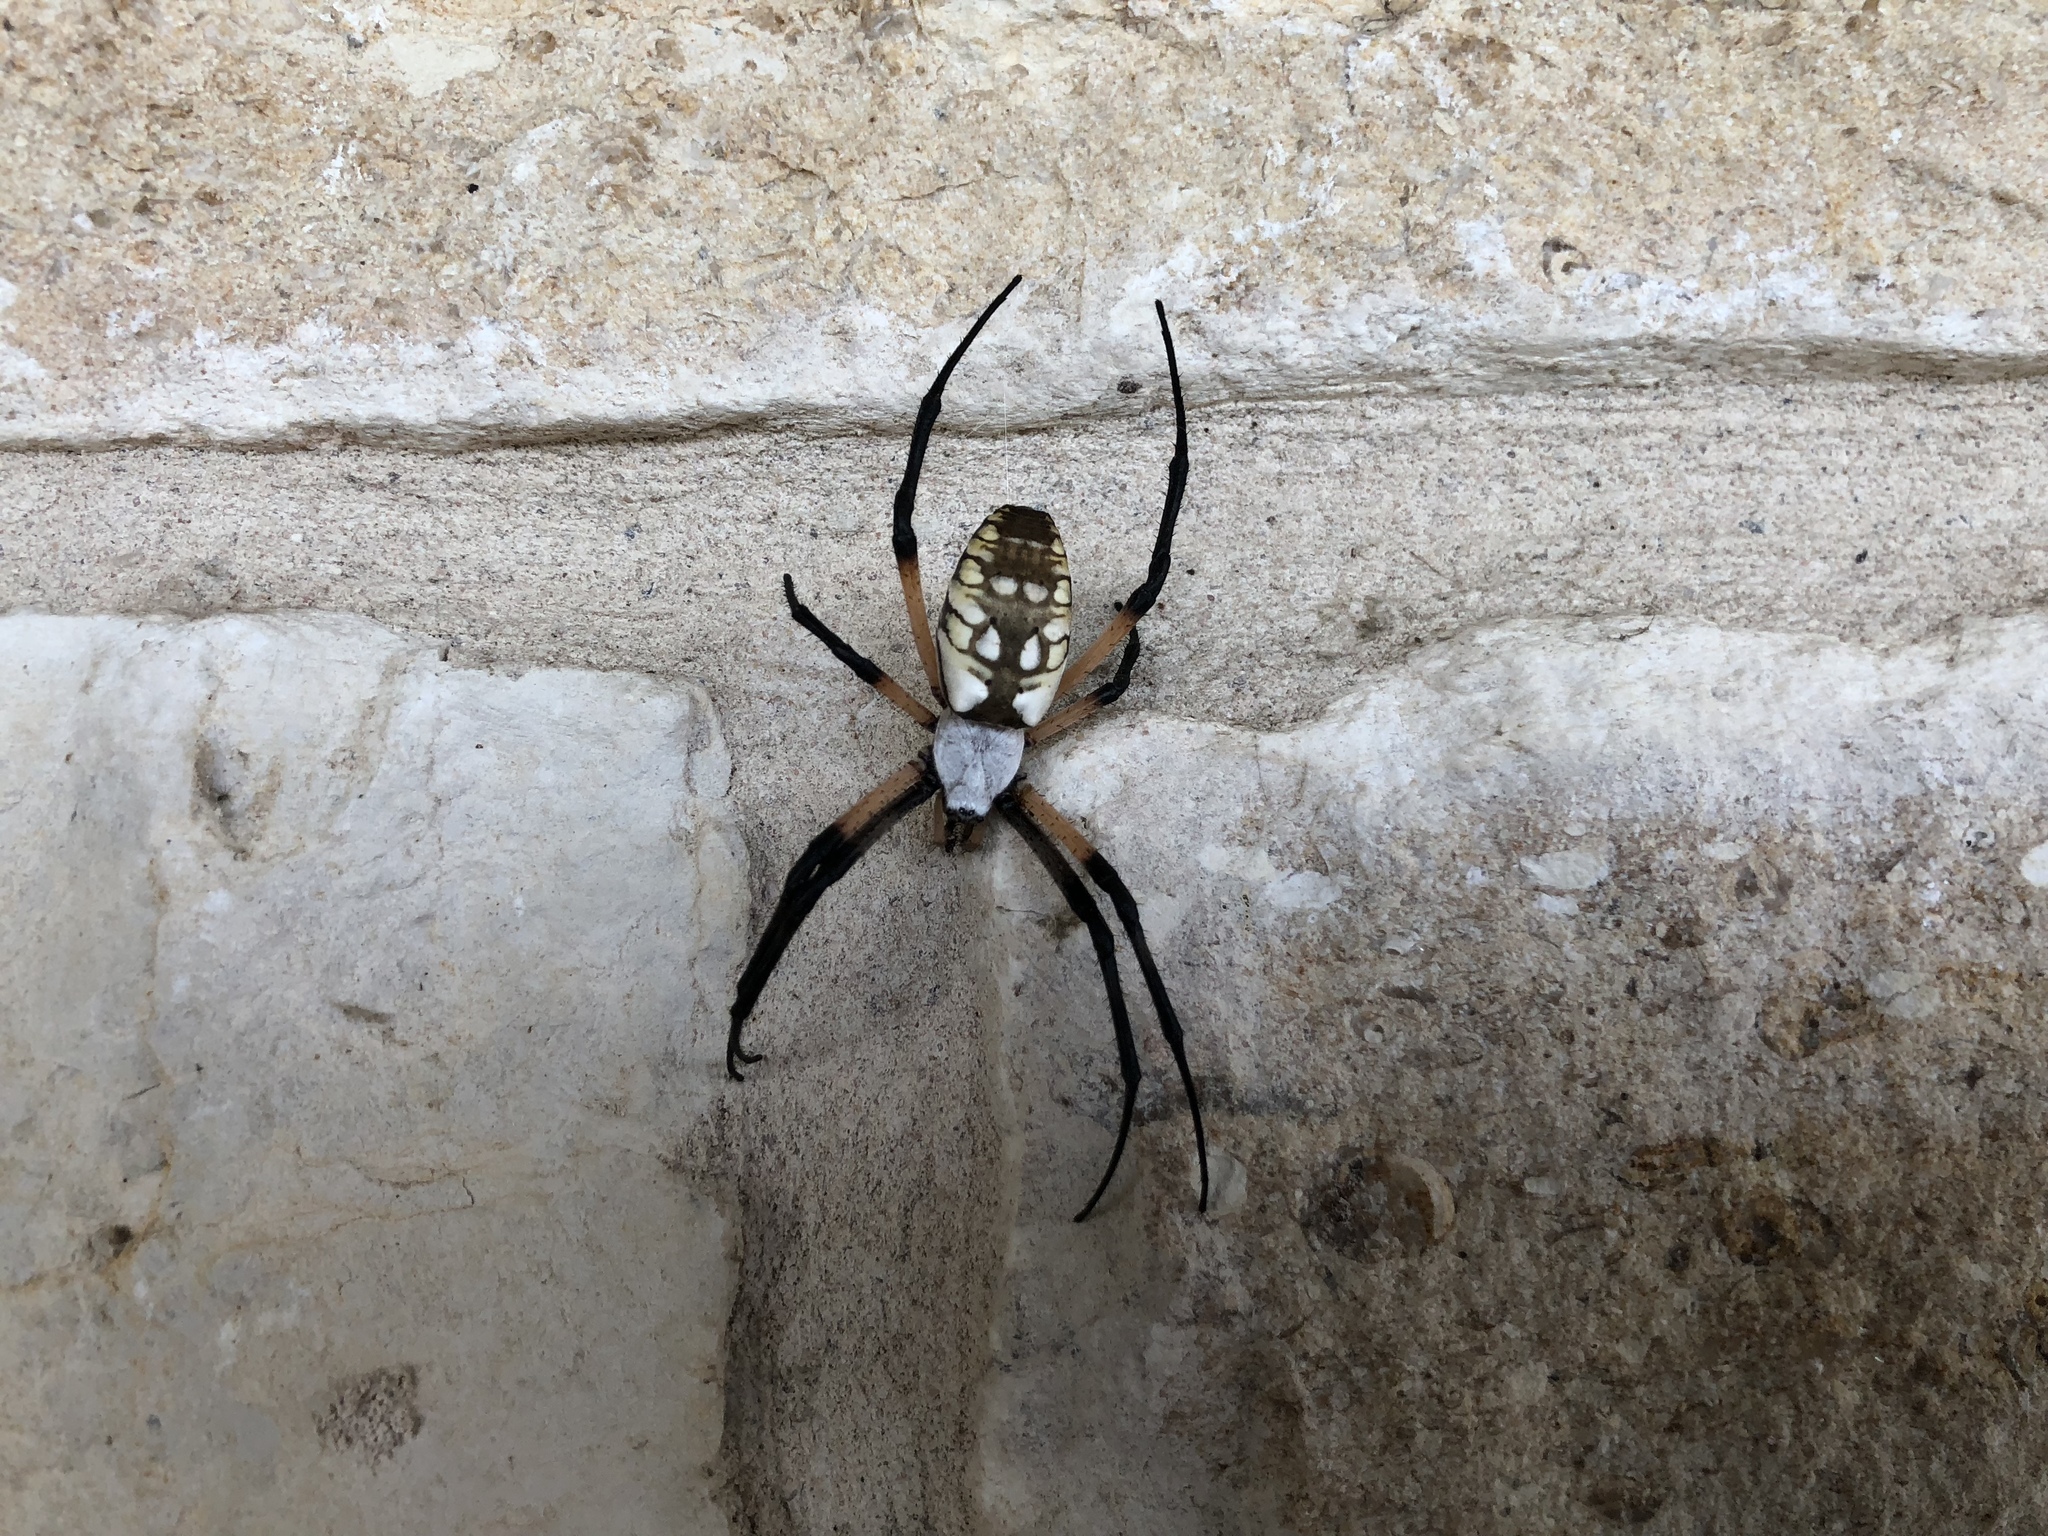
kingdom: Animalia
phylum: Arthropoda
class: Arachnida
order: Araneae
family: Araneidae
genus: Argiope
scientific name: Argiope aurantia
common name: Orb weavers
